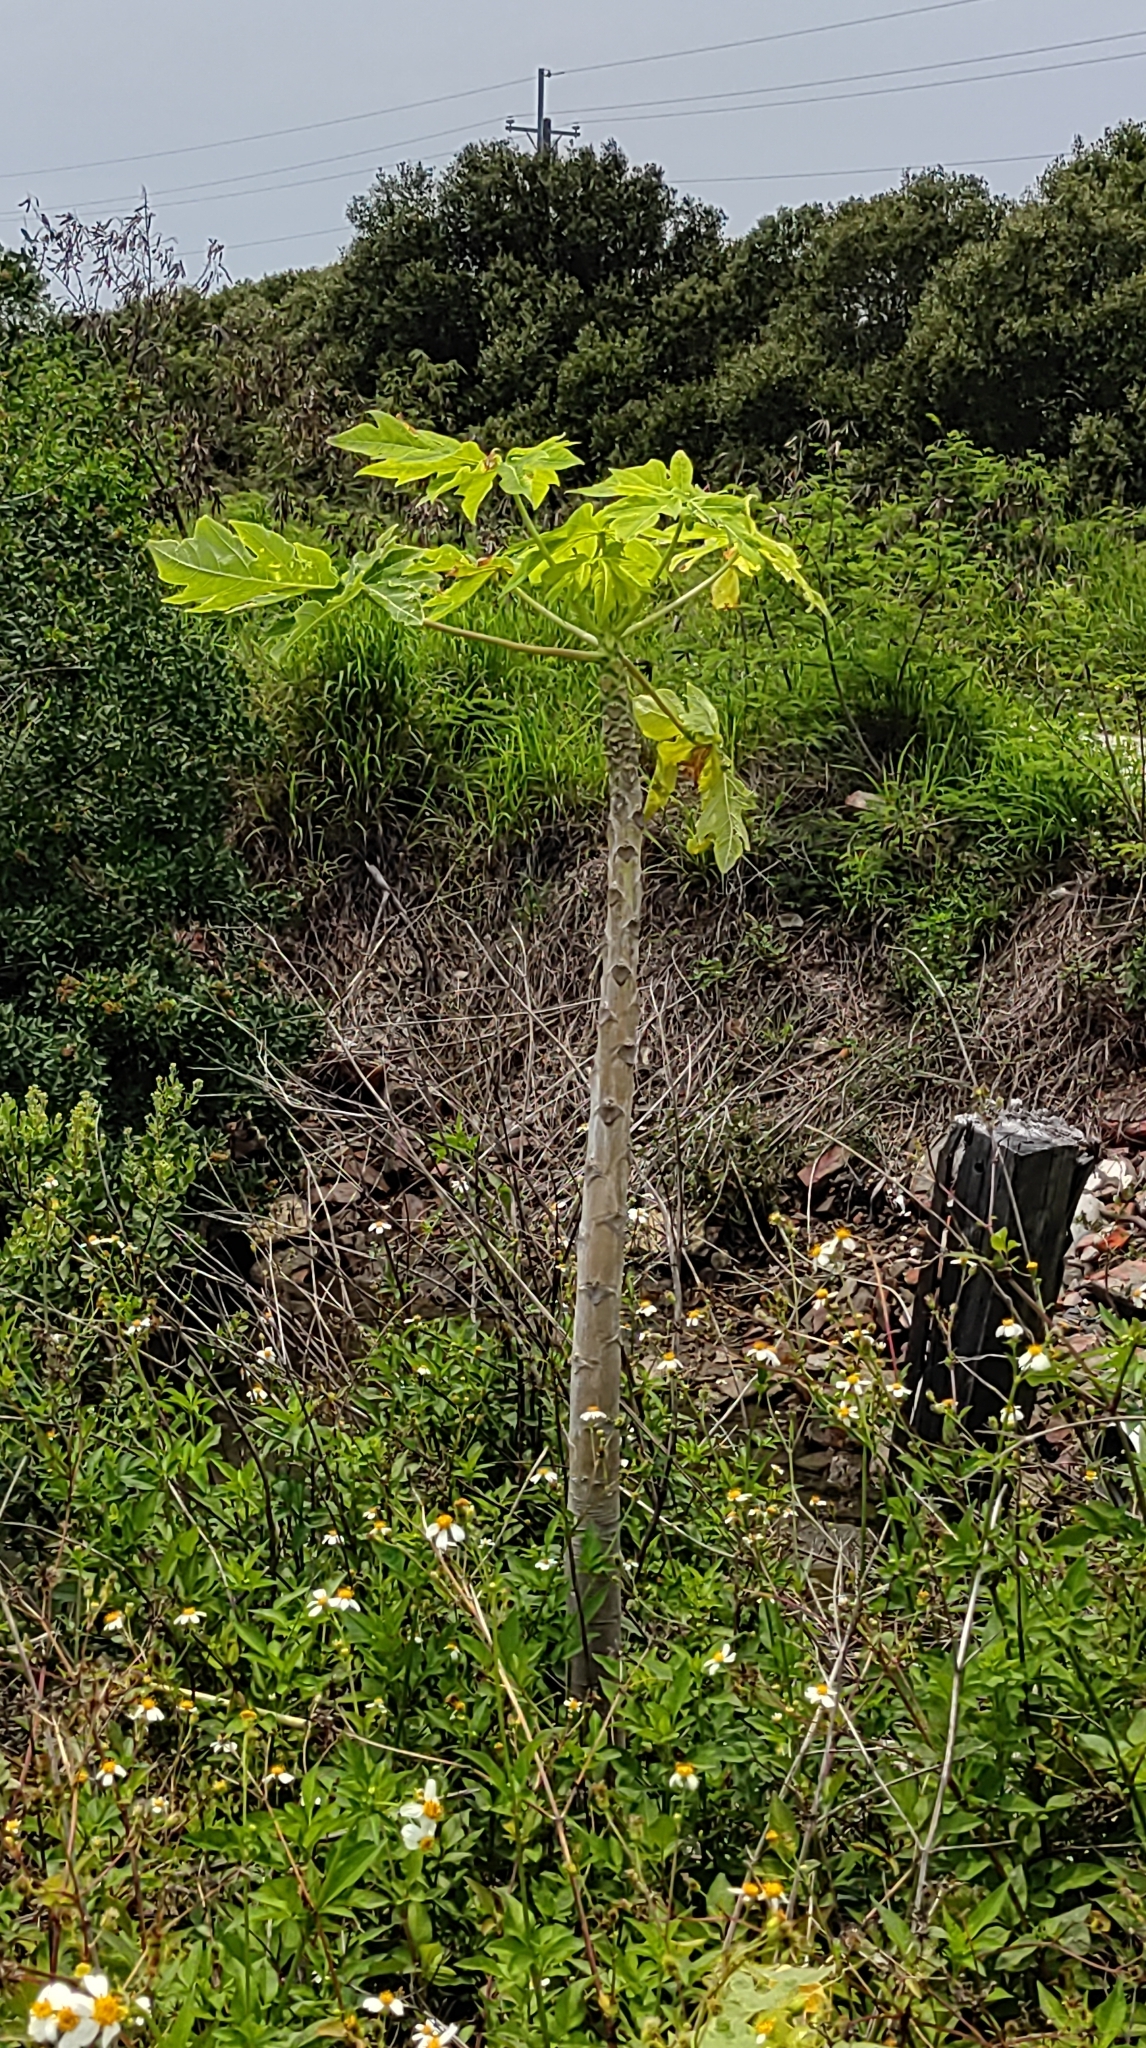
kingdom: Plantae
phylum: Tracheophyta
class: Magnoliopsida
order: Brassicales
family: Caricaceae
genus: Carica
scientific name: Carica papaya
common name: Papaya
